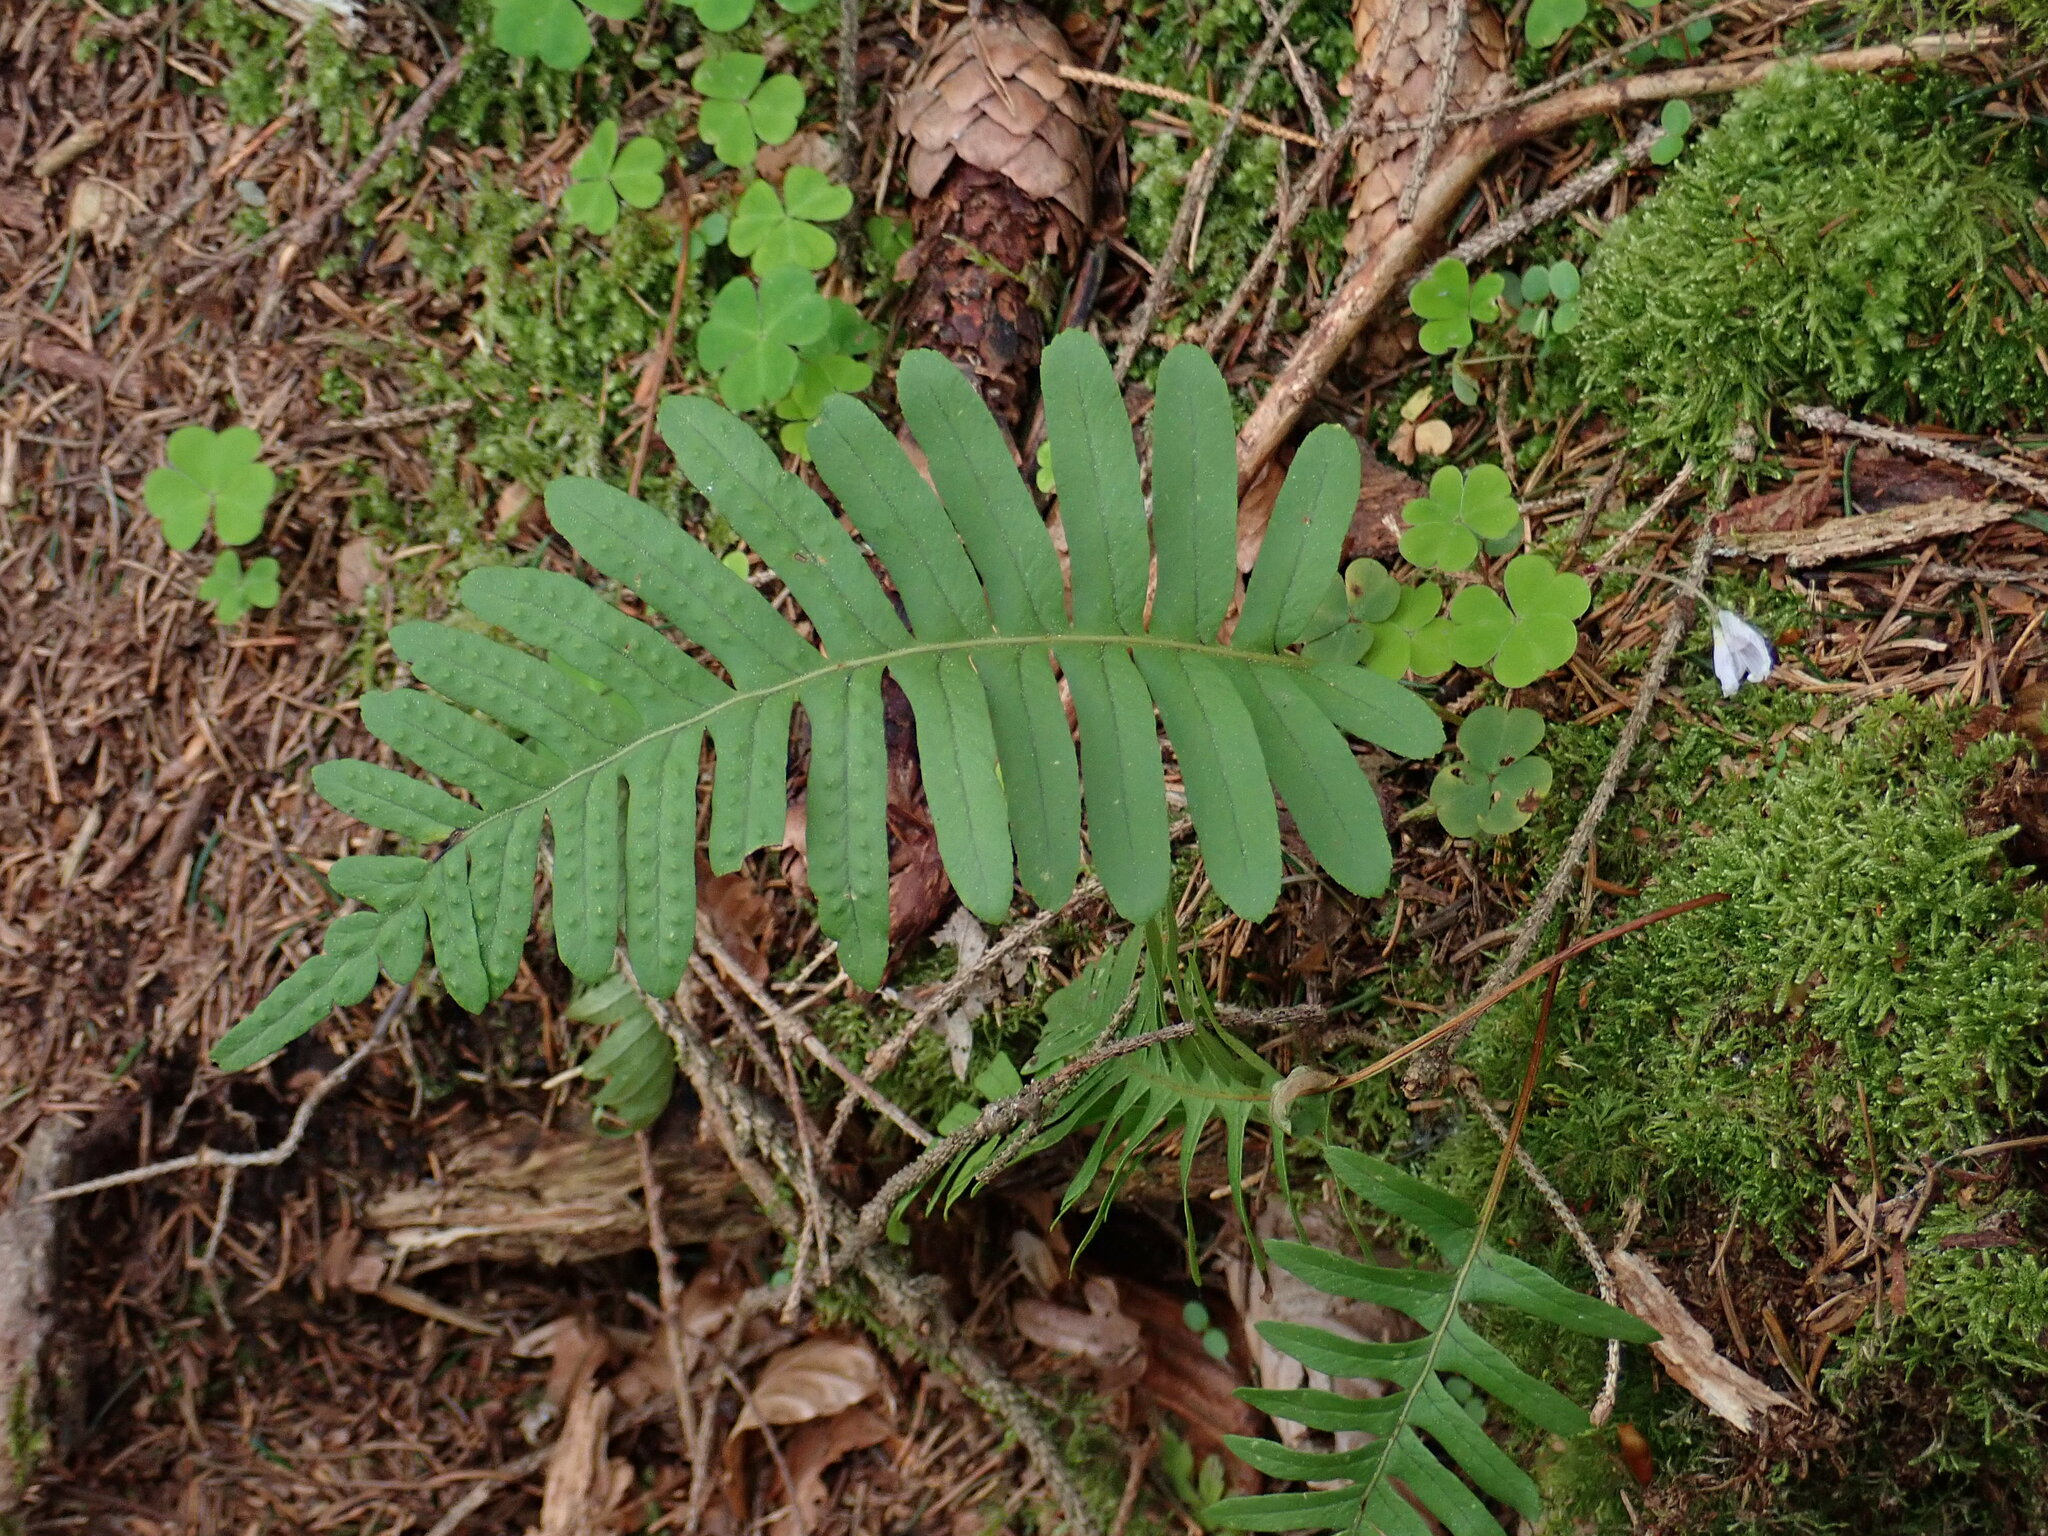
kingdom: Plantae
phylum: Tracheophyta
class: Polypodiopsida
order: Polypodiales
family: Polypodiaceae
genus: Polypodium
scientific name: Polypodium vulgare
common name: Common polypody
